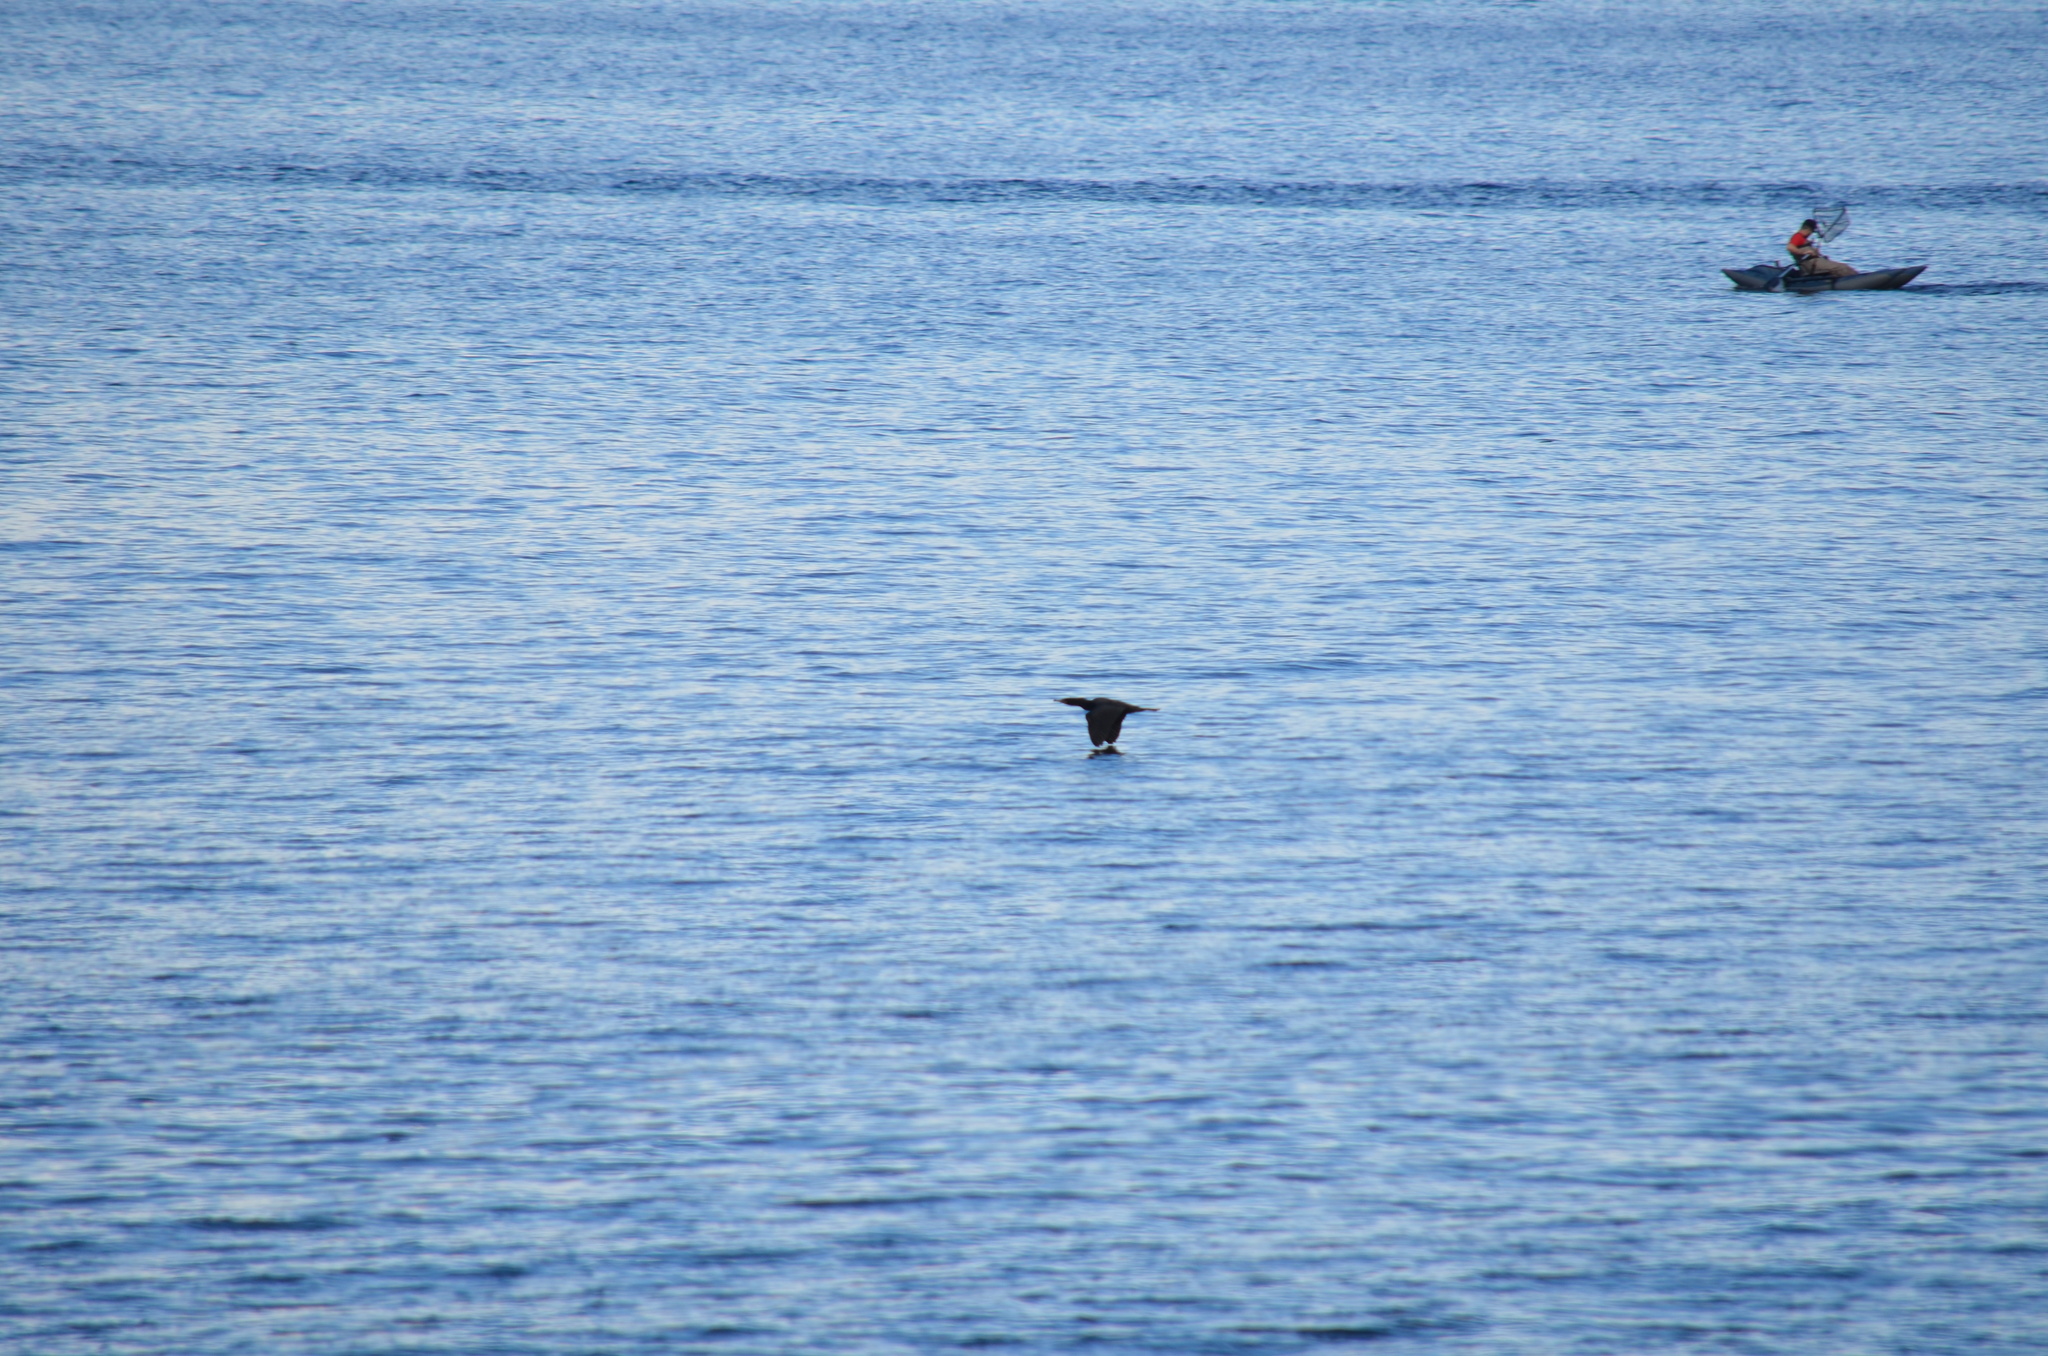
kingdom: Animalia
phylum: Chordata
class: Aves
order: Suliformes
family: Phalacrocoracidae
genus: Phalacrocorax
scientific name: Phalacrocorax auritus
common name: Double-crested cormorant
